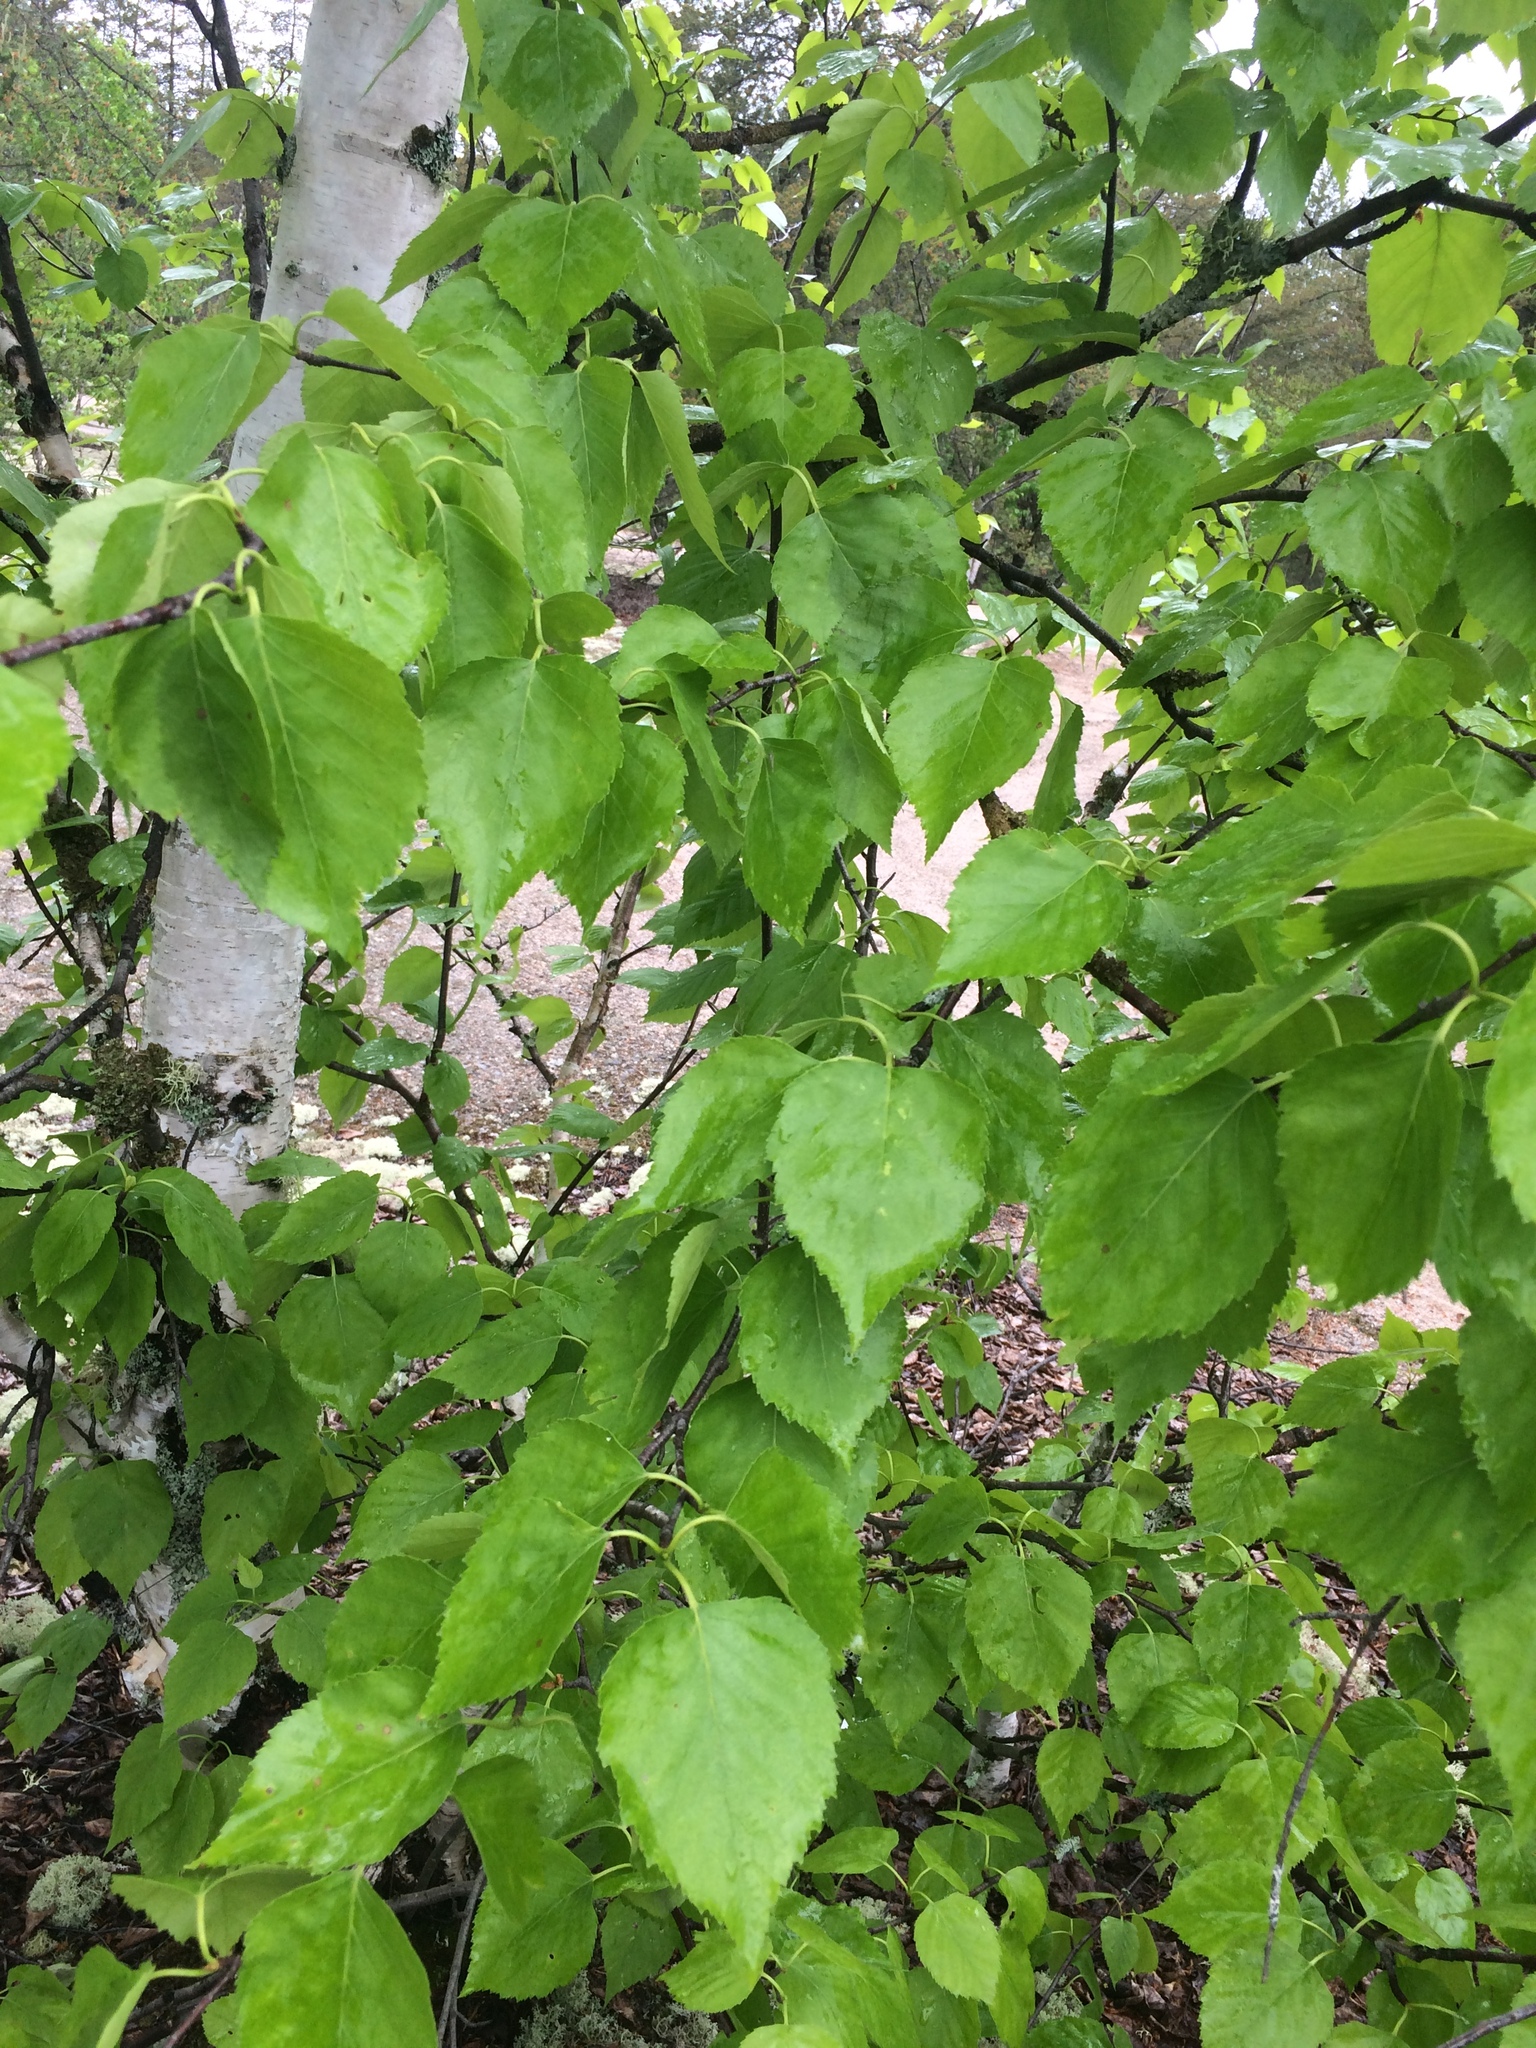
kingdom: Plantae
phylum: Tracheophyta
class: Magnoliopsida
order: Fagales
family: Betulaceae
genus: Betula
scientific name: Betula papyrifera
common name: Paper birch
